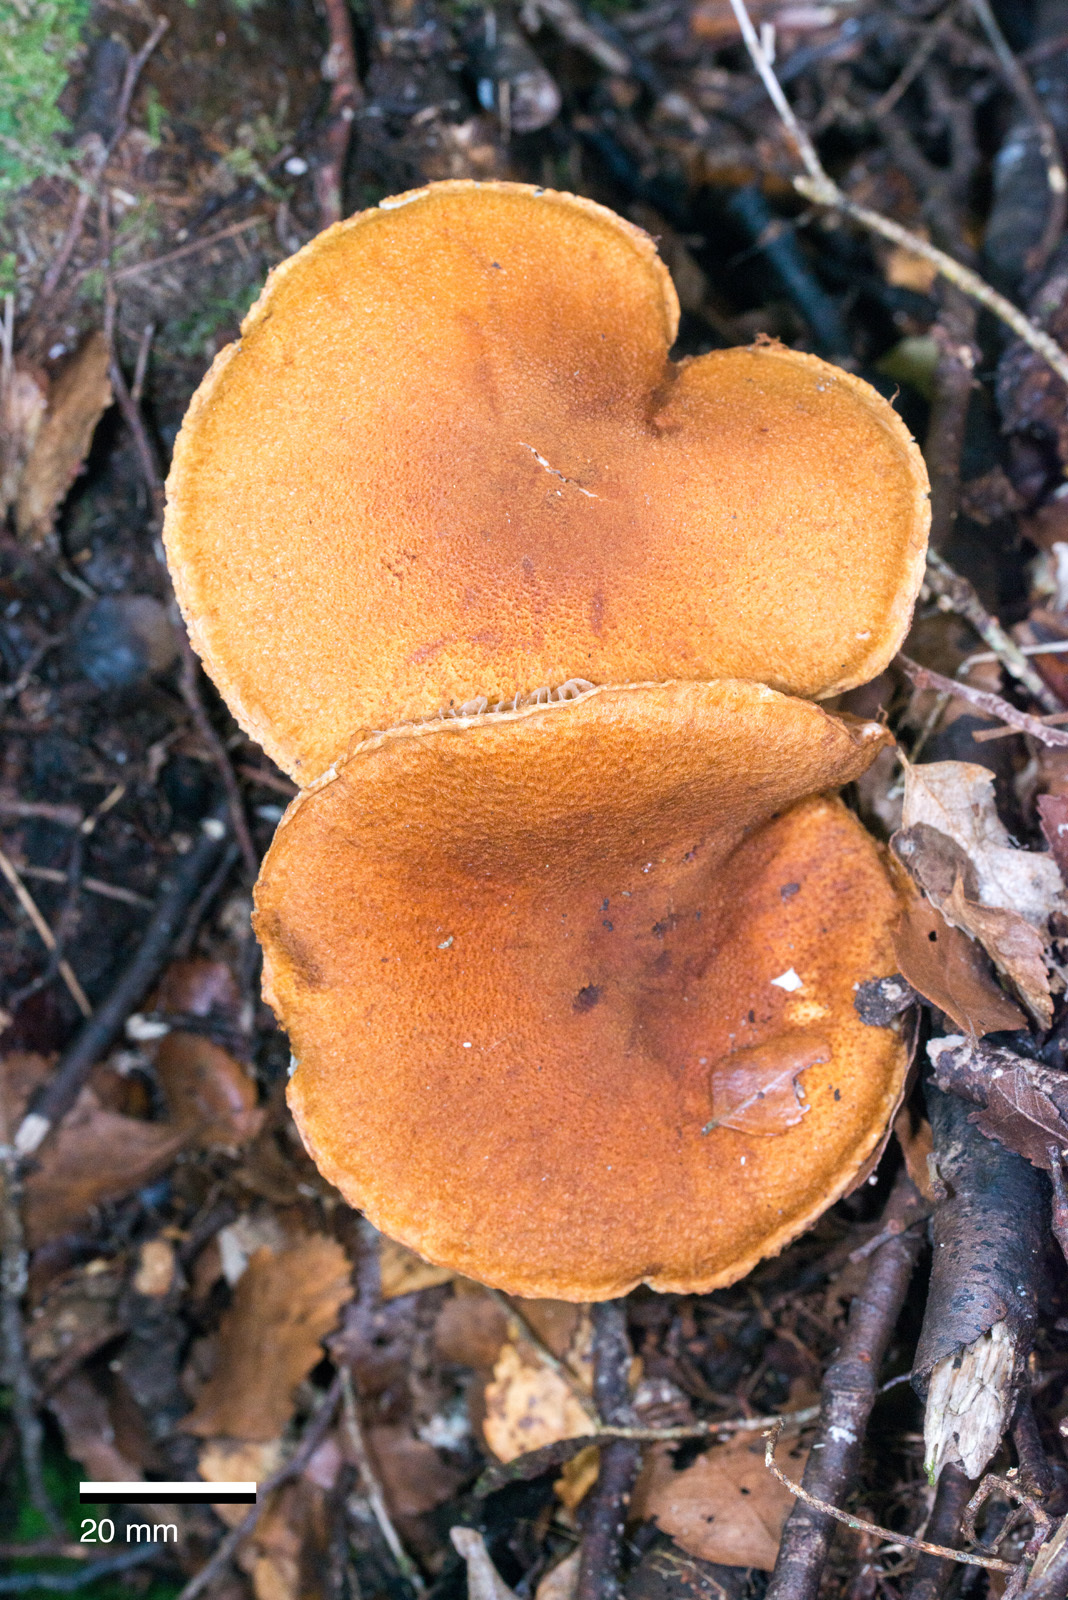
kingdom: Fungi
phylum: Basidiomycota
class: Agaricomycetes
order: Agaricales
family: Cortinariaceae
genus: Thaxterogaster
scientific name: Thaxterogaster castoreus
